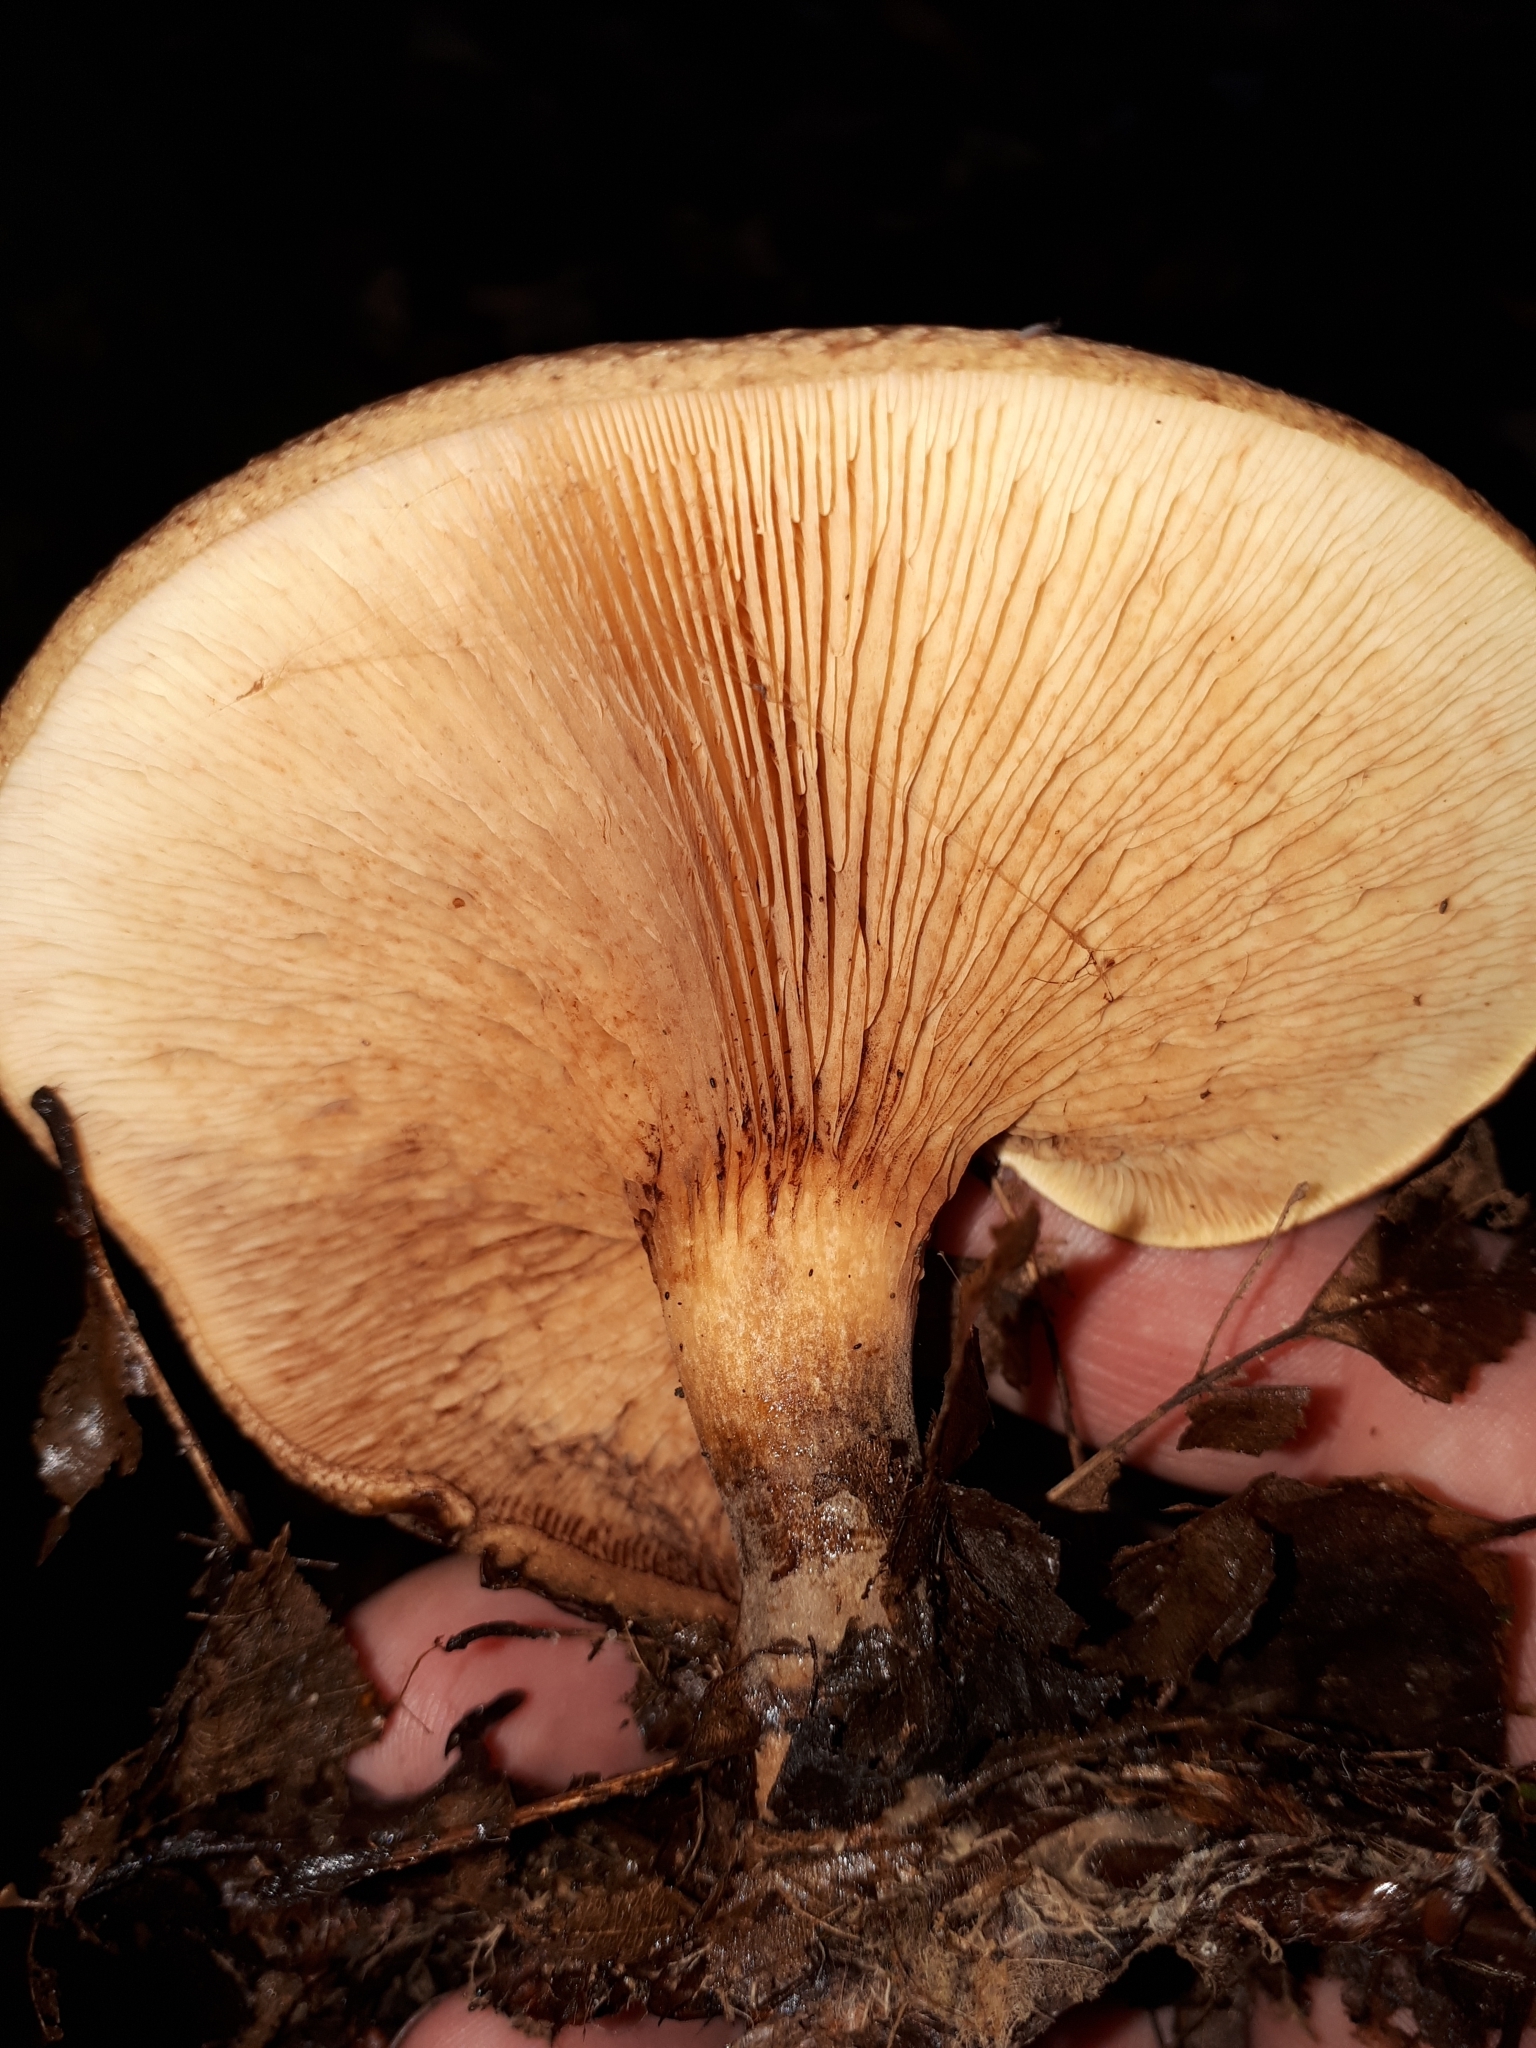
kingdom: Fungi
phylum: Basidiomycota
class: Agaricomycetes
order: Boletales
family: Paxillaceae
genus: Paxillus
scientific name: Paxillus cuprinus
